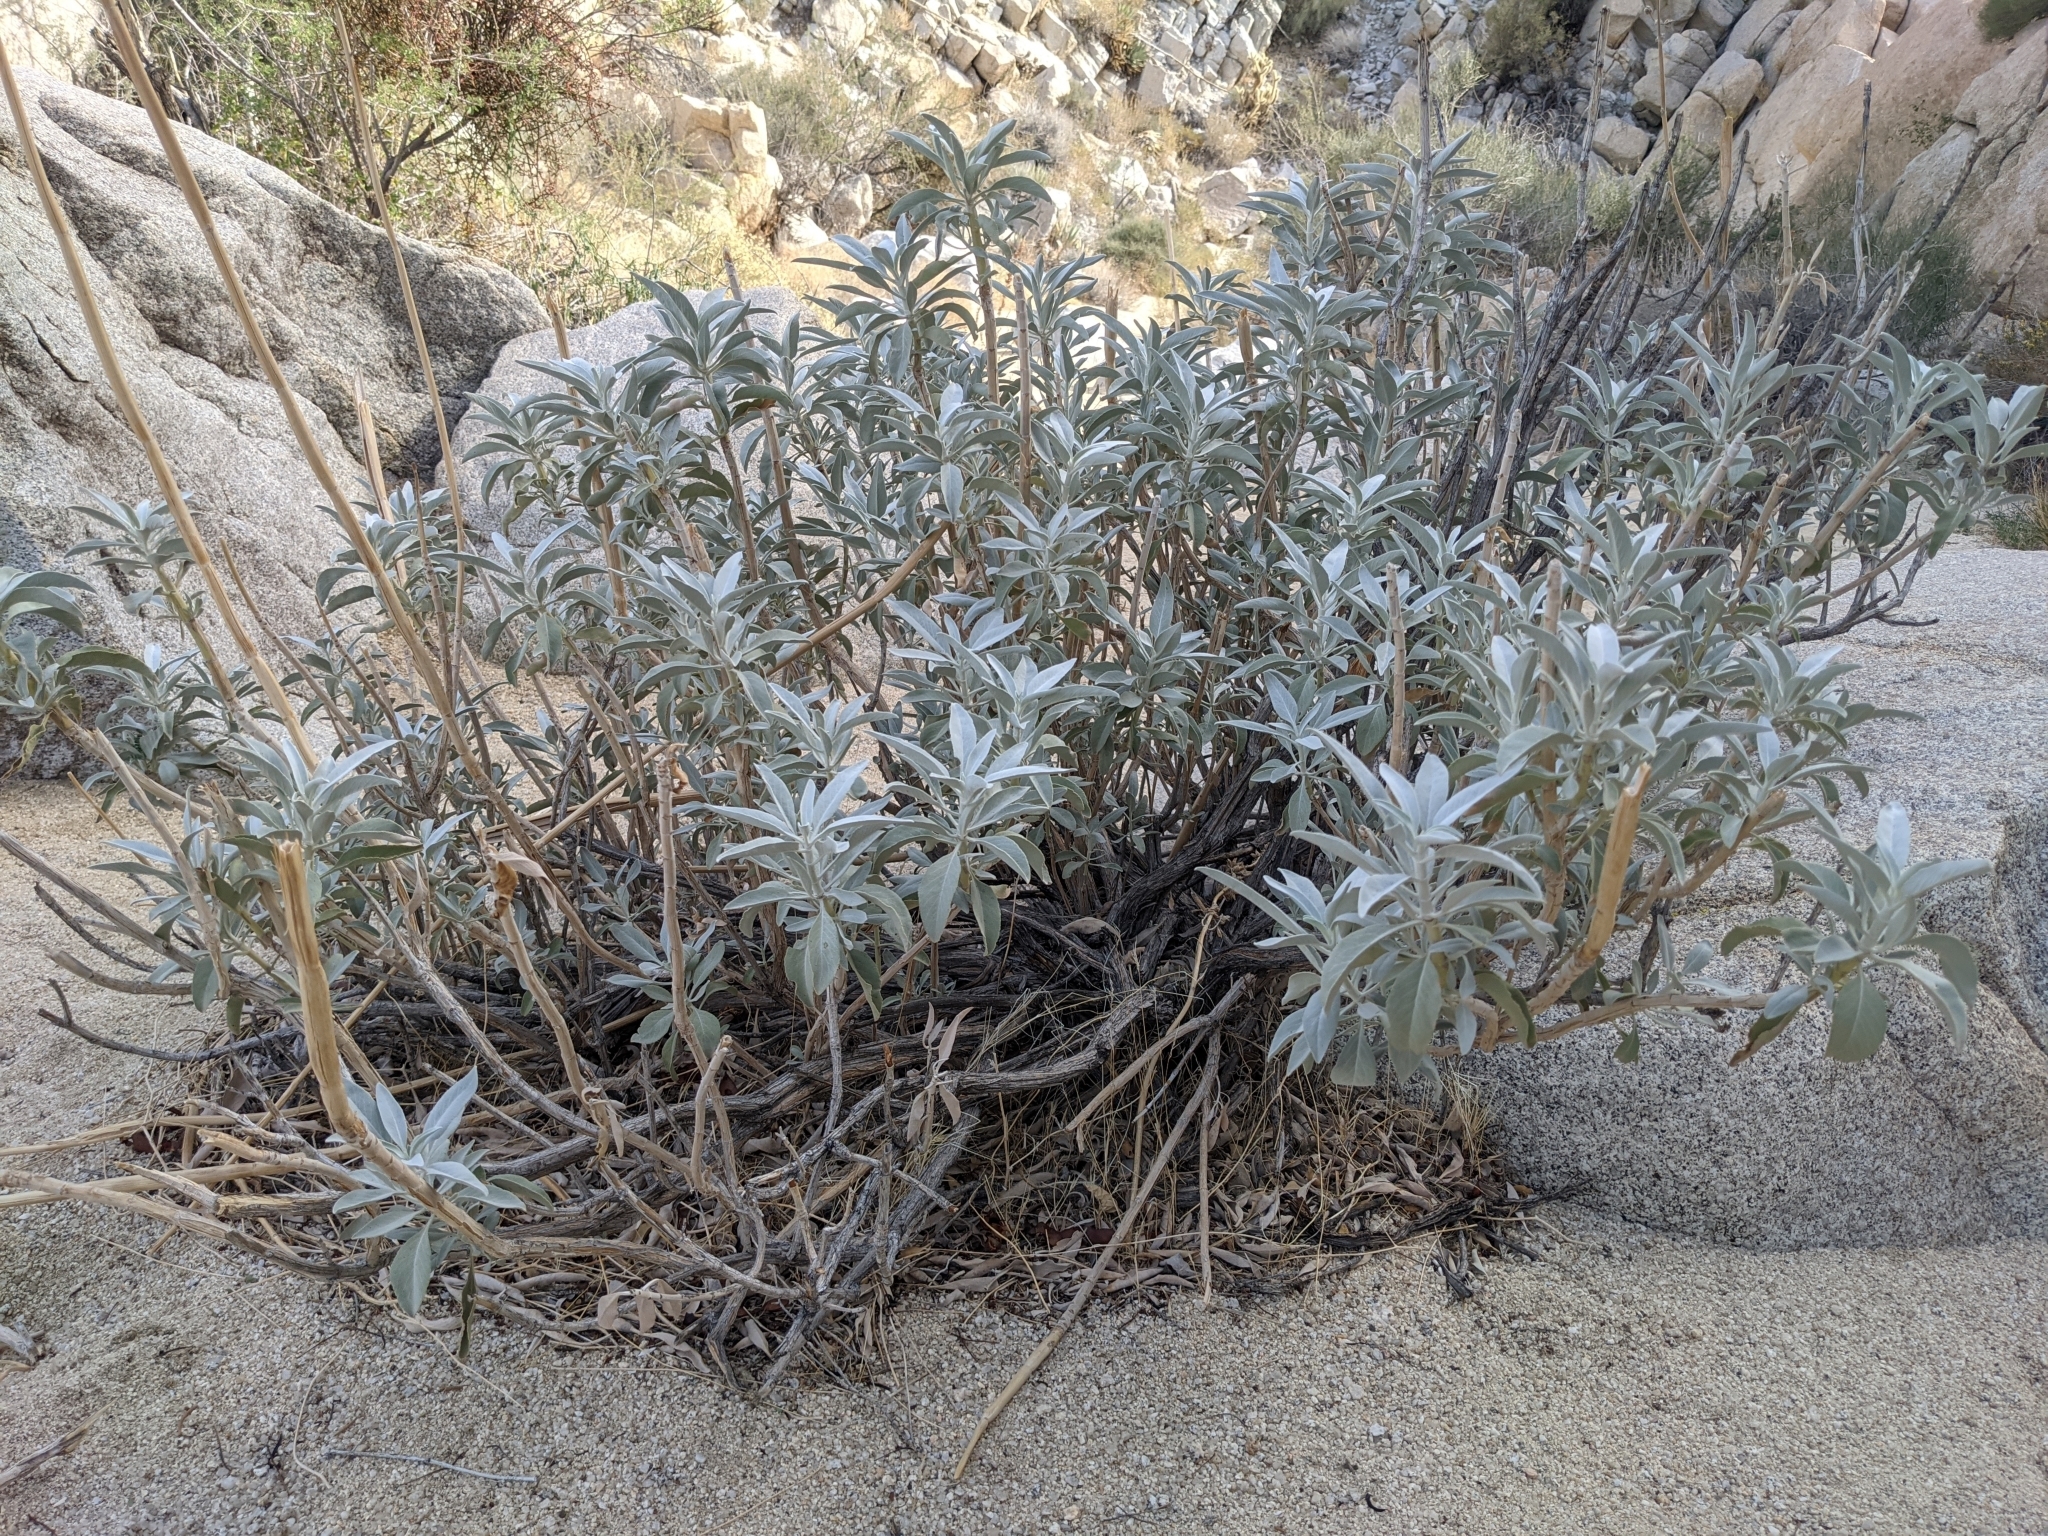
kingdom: Plantae
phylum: Tracheophyta
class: Magnoliopsida
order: Lamiales
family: Lamiaceae
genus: Salvia
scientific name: Salvia apiana
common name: White sage
